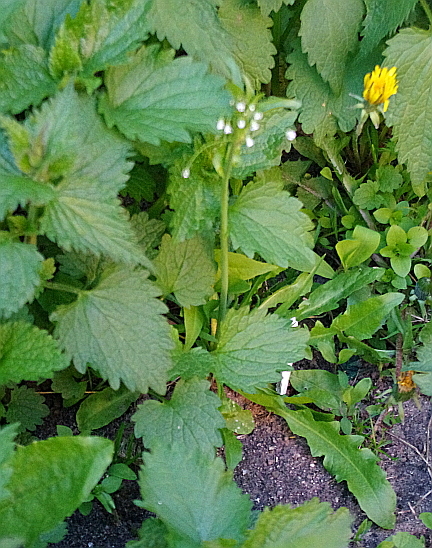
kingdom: Plantae
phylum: Tracheophyta
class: Magnoliopsida
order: Brassicales
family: Brassicaceae
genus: Capsella
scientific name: Capsella bursa-pastoris
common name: Shepherd's purse
